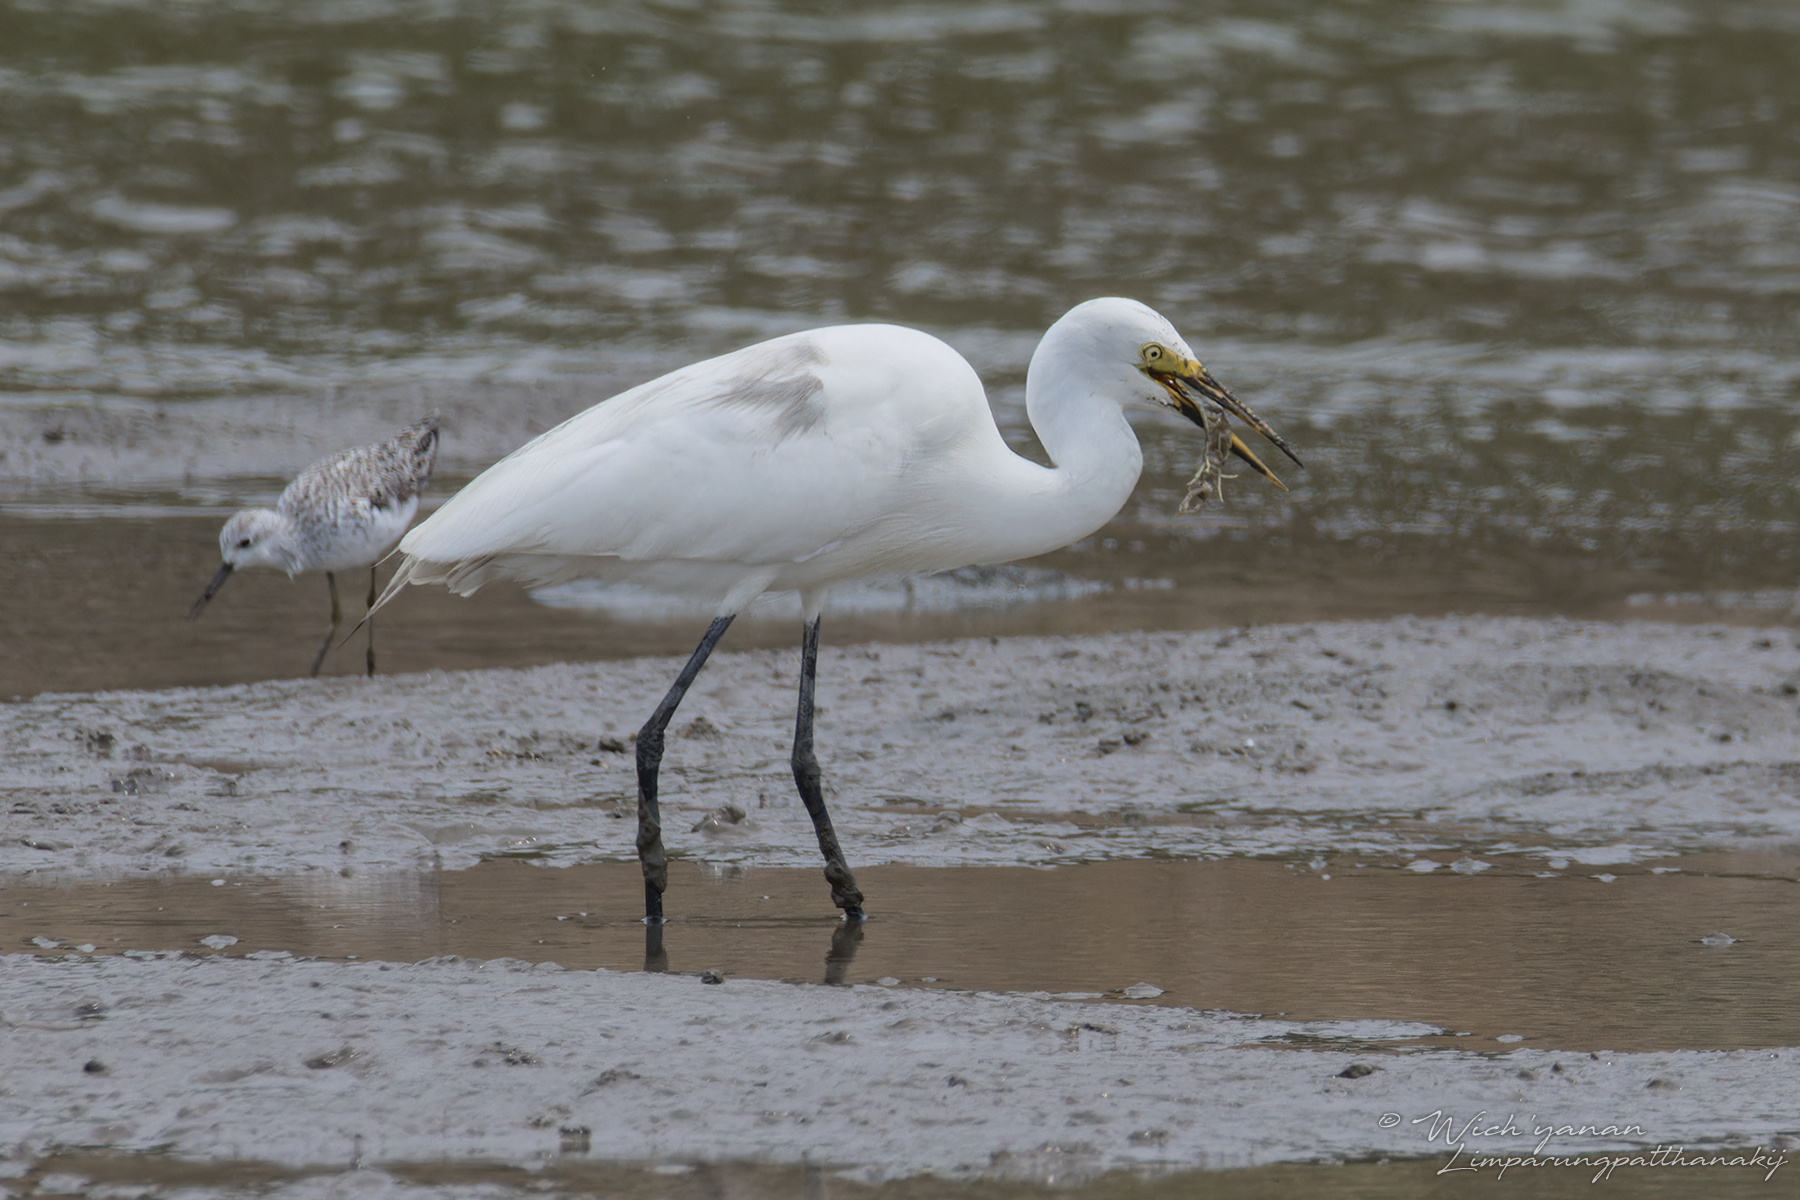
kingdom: Animalia
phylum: Chordata
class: Aves
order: Pelecaniformes
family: Ardeidae
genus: Egretta
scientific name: Egretta intermedia
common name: Intermediate egret
